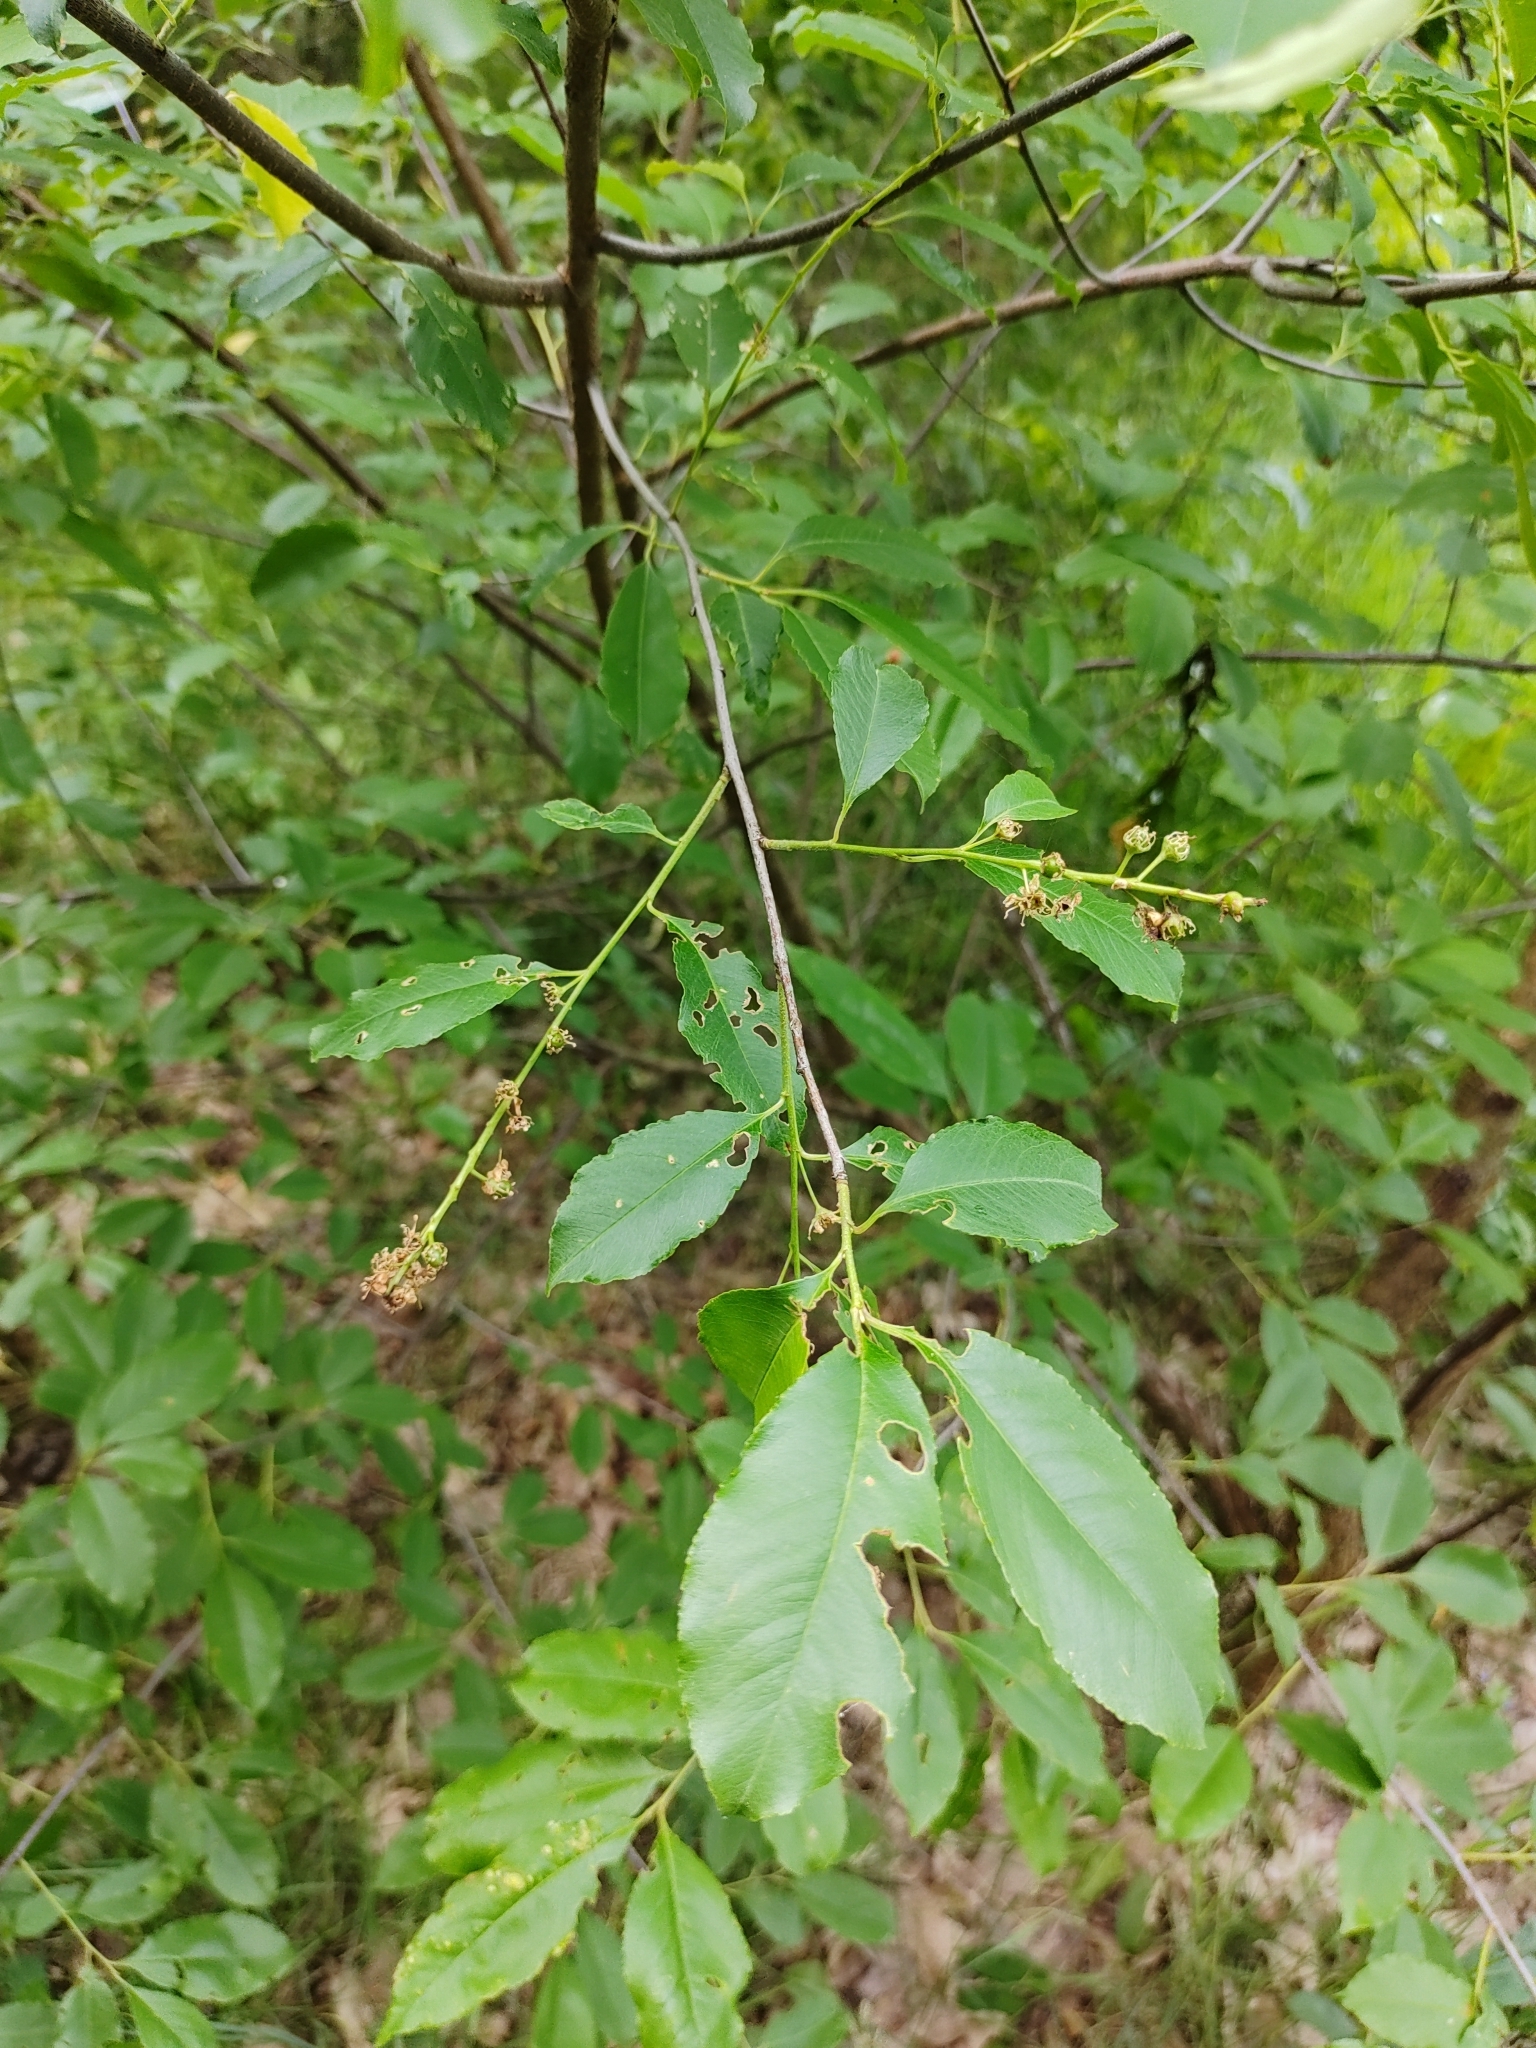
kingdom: Plantae
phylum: Tracheophyta
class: Magnoliopsida
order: Rosales
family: Rosaceae
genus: Prunus
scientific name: Prunus serotina
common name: Black cherry
